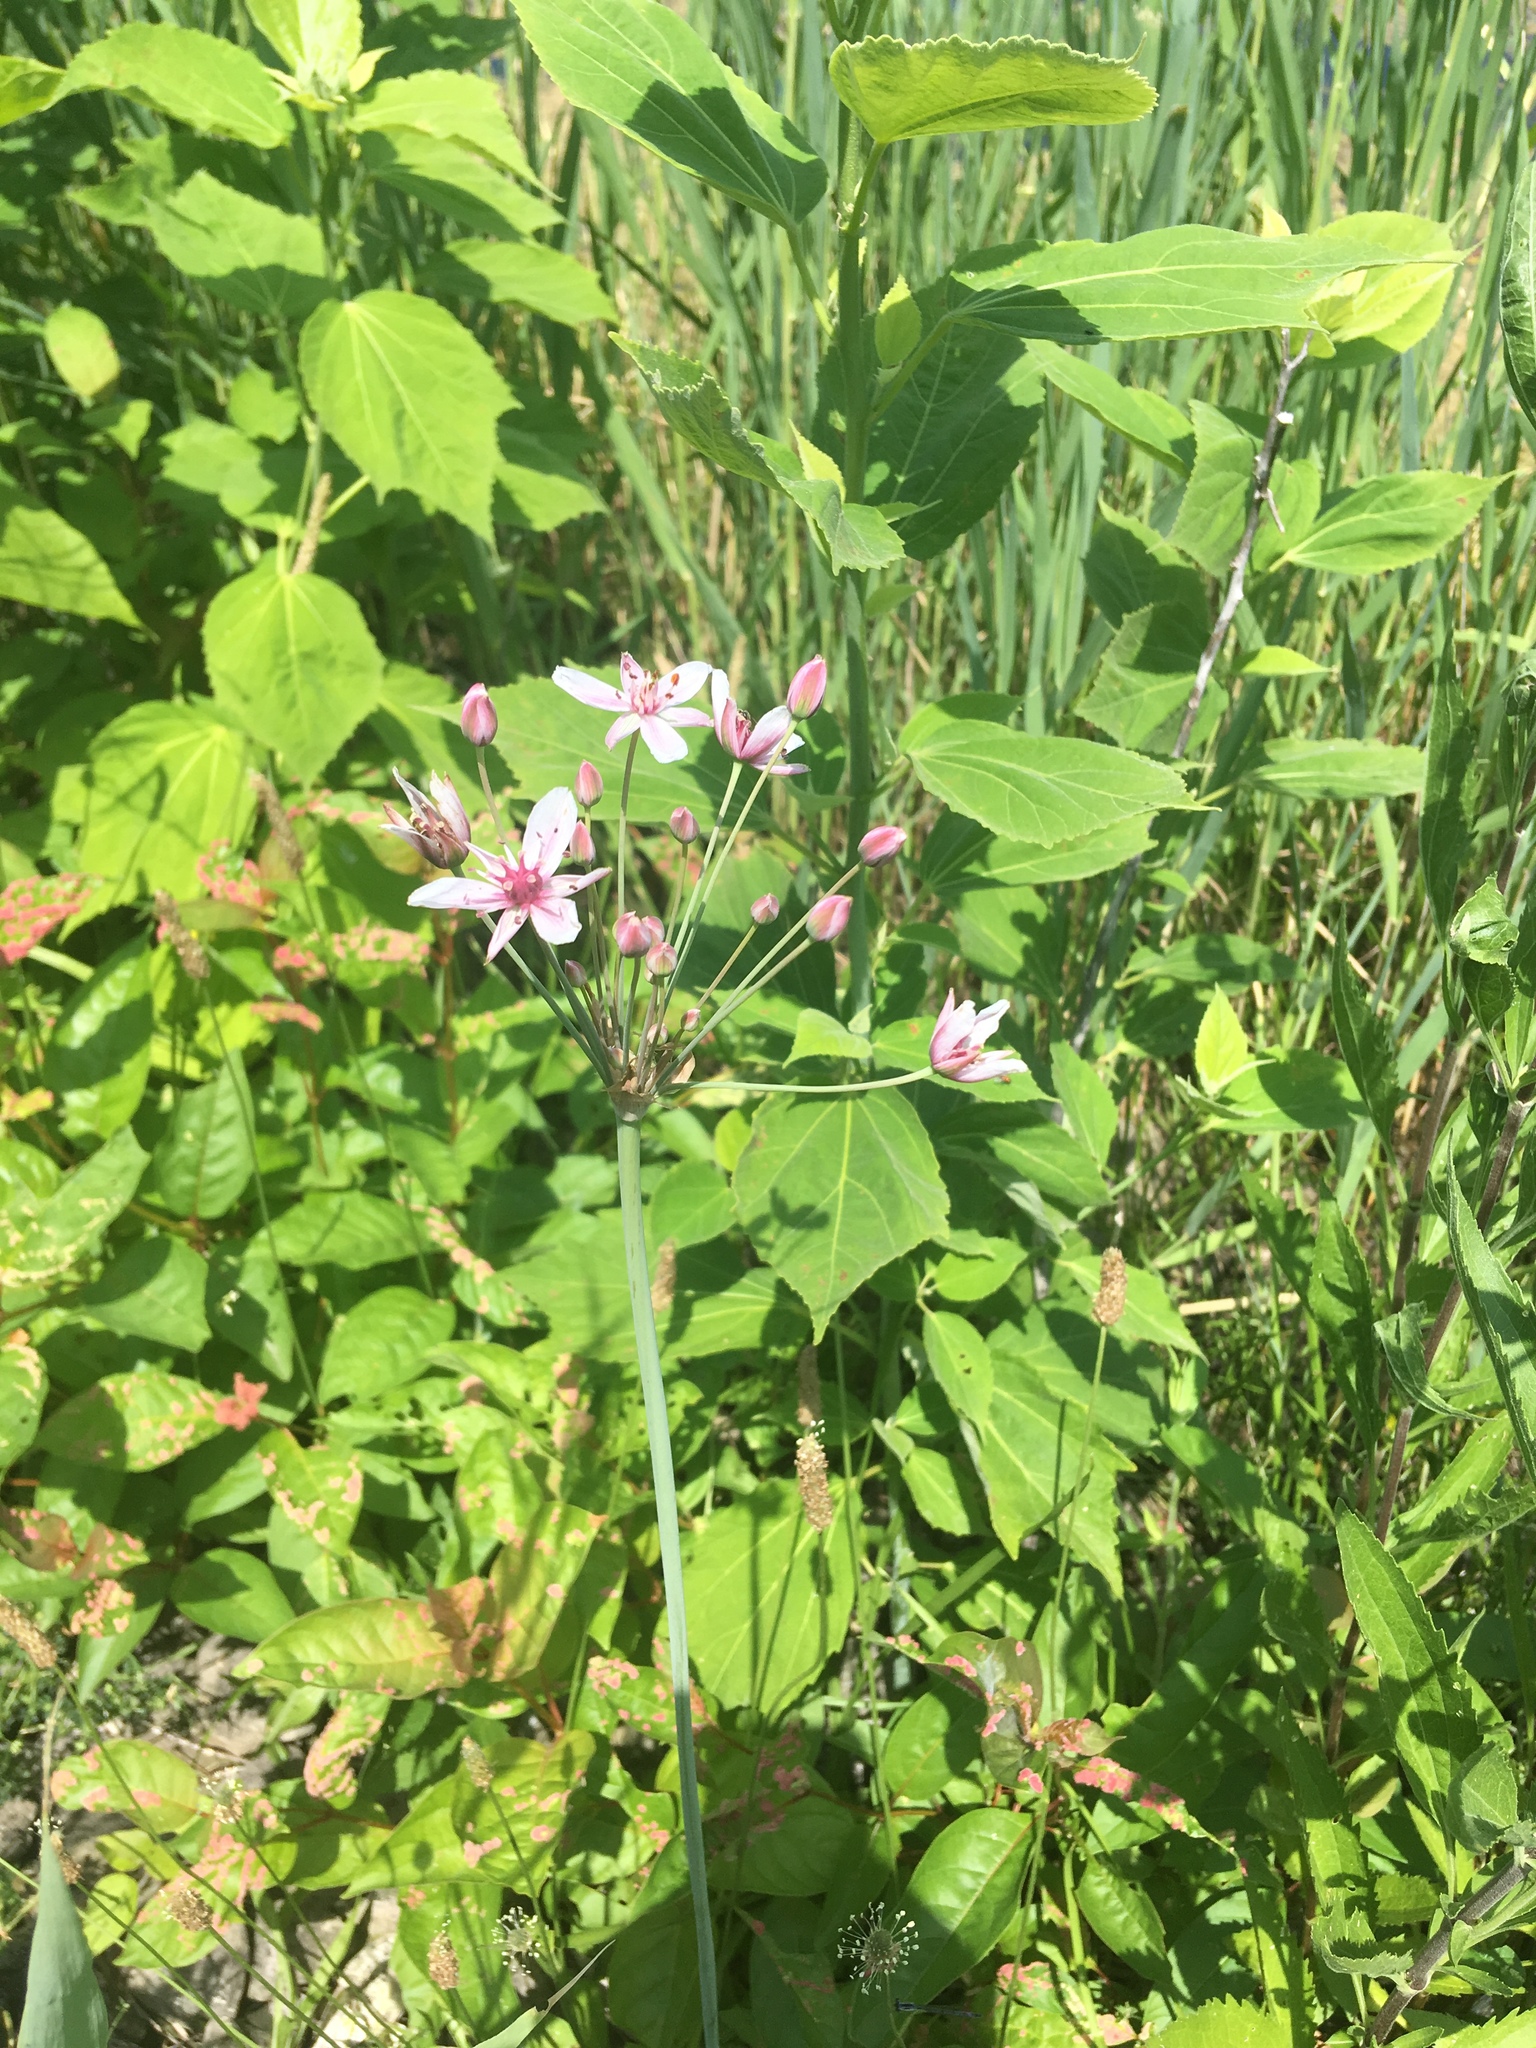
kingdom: Plantae
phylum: Tracheophyta
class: Liliopsida
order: Alismatales
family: Butomaceae
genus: Butomus
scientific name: Butomus umbellatus
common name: Flowering-rush
